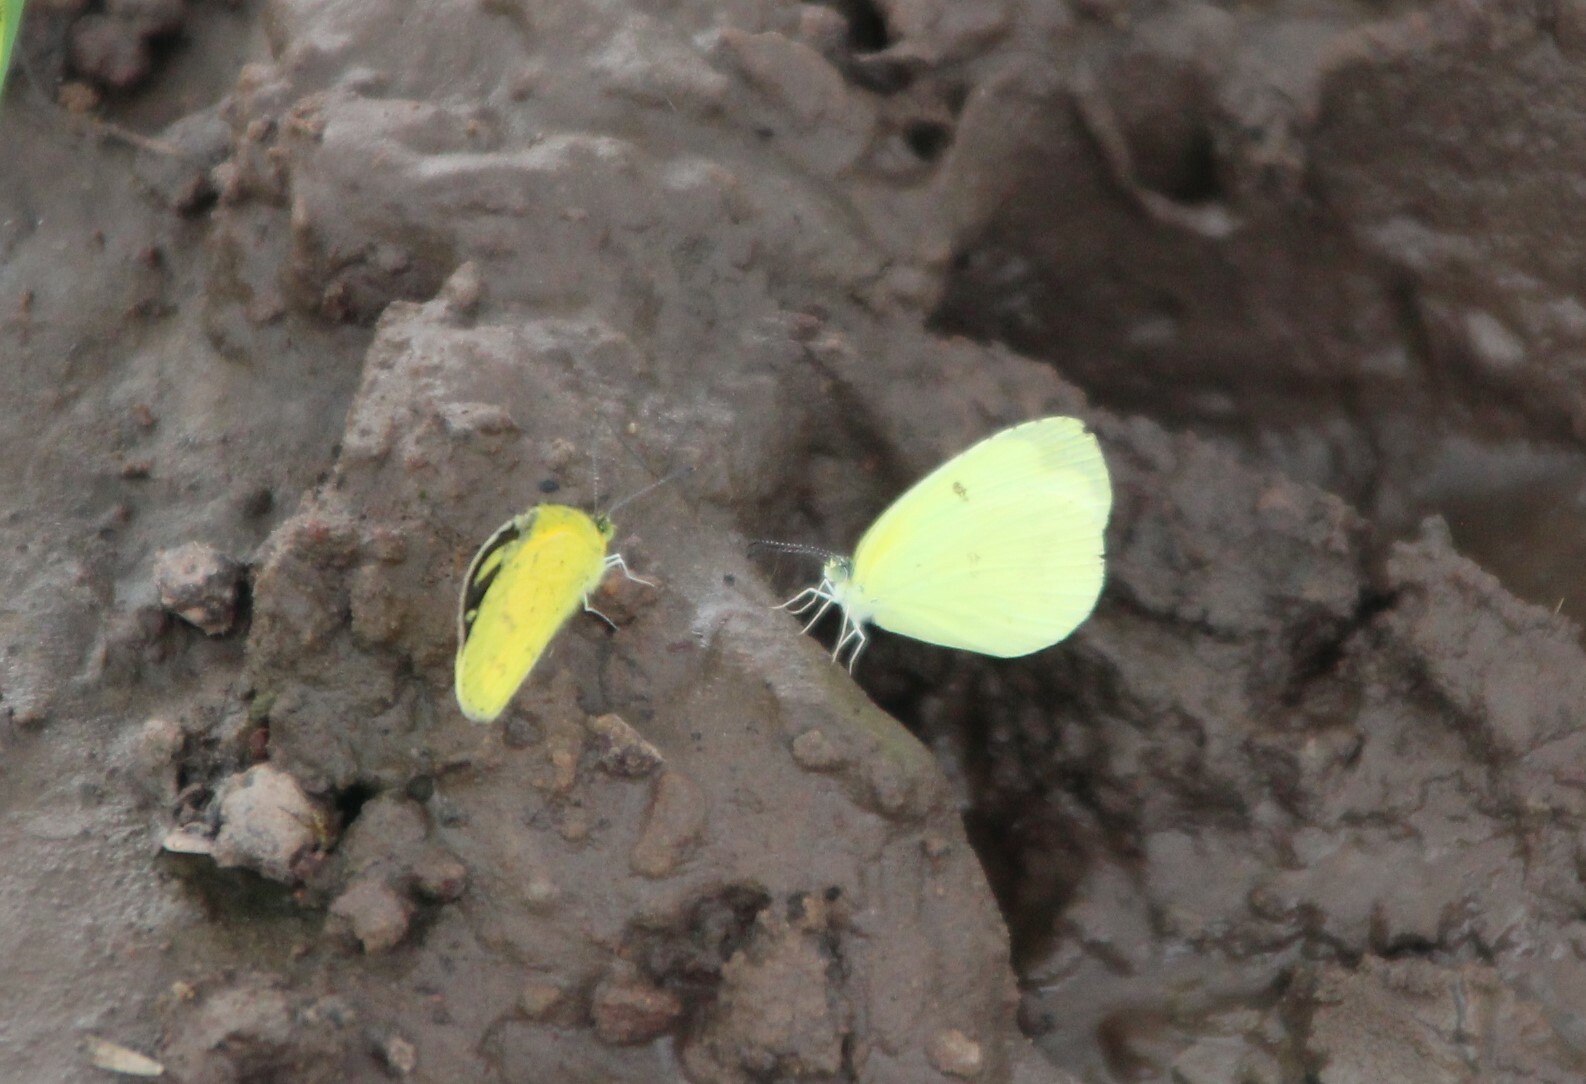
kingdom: Animalia
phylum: Arthropoda
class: Insecta
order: Lepidoptera
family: Pieridae
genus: Eurema
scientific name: Eurema hapale
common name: Marsh grass yellow
